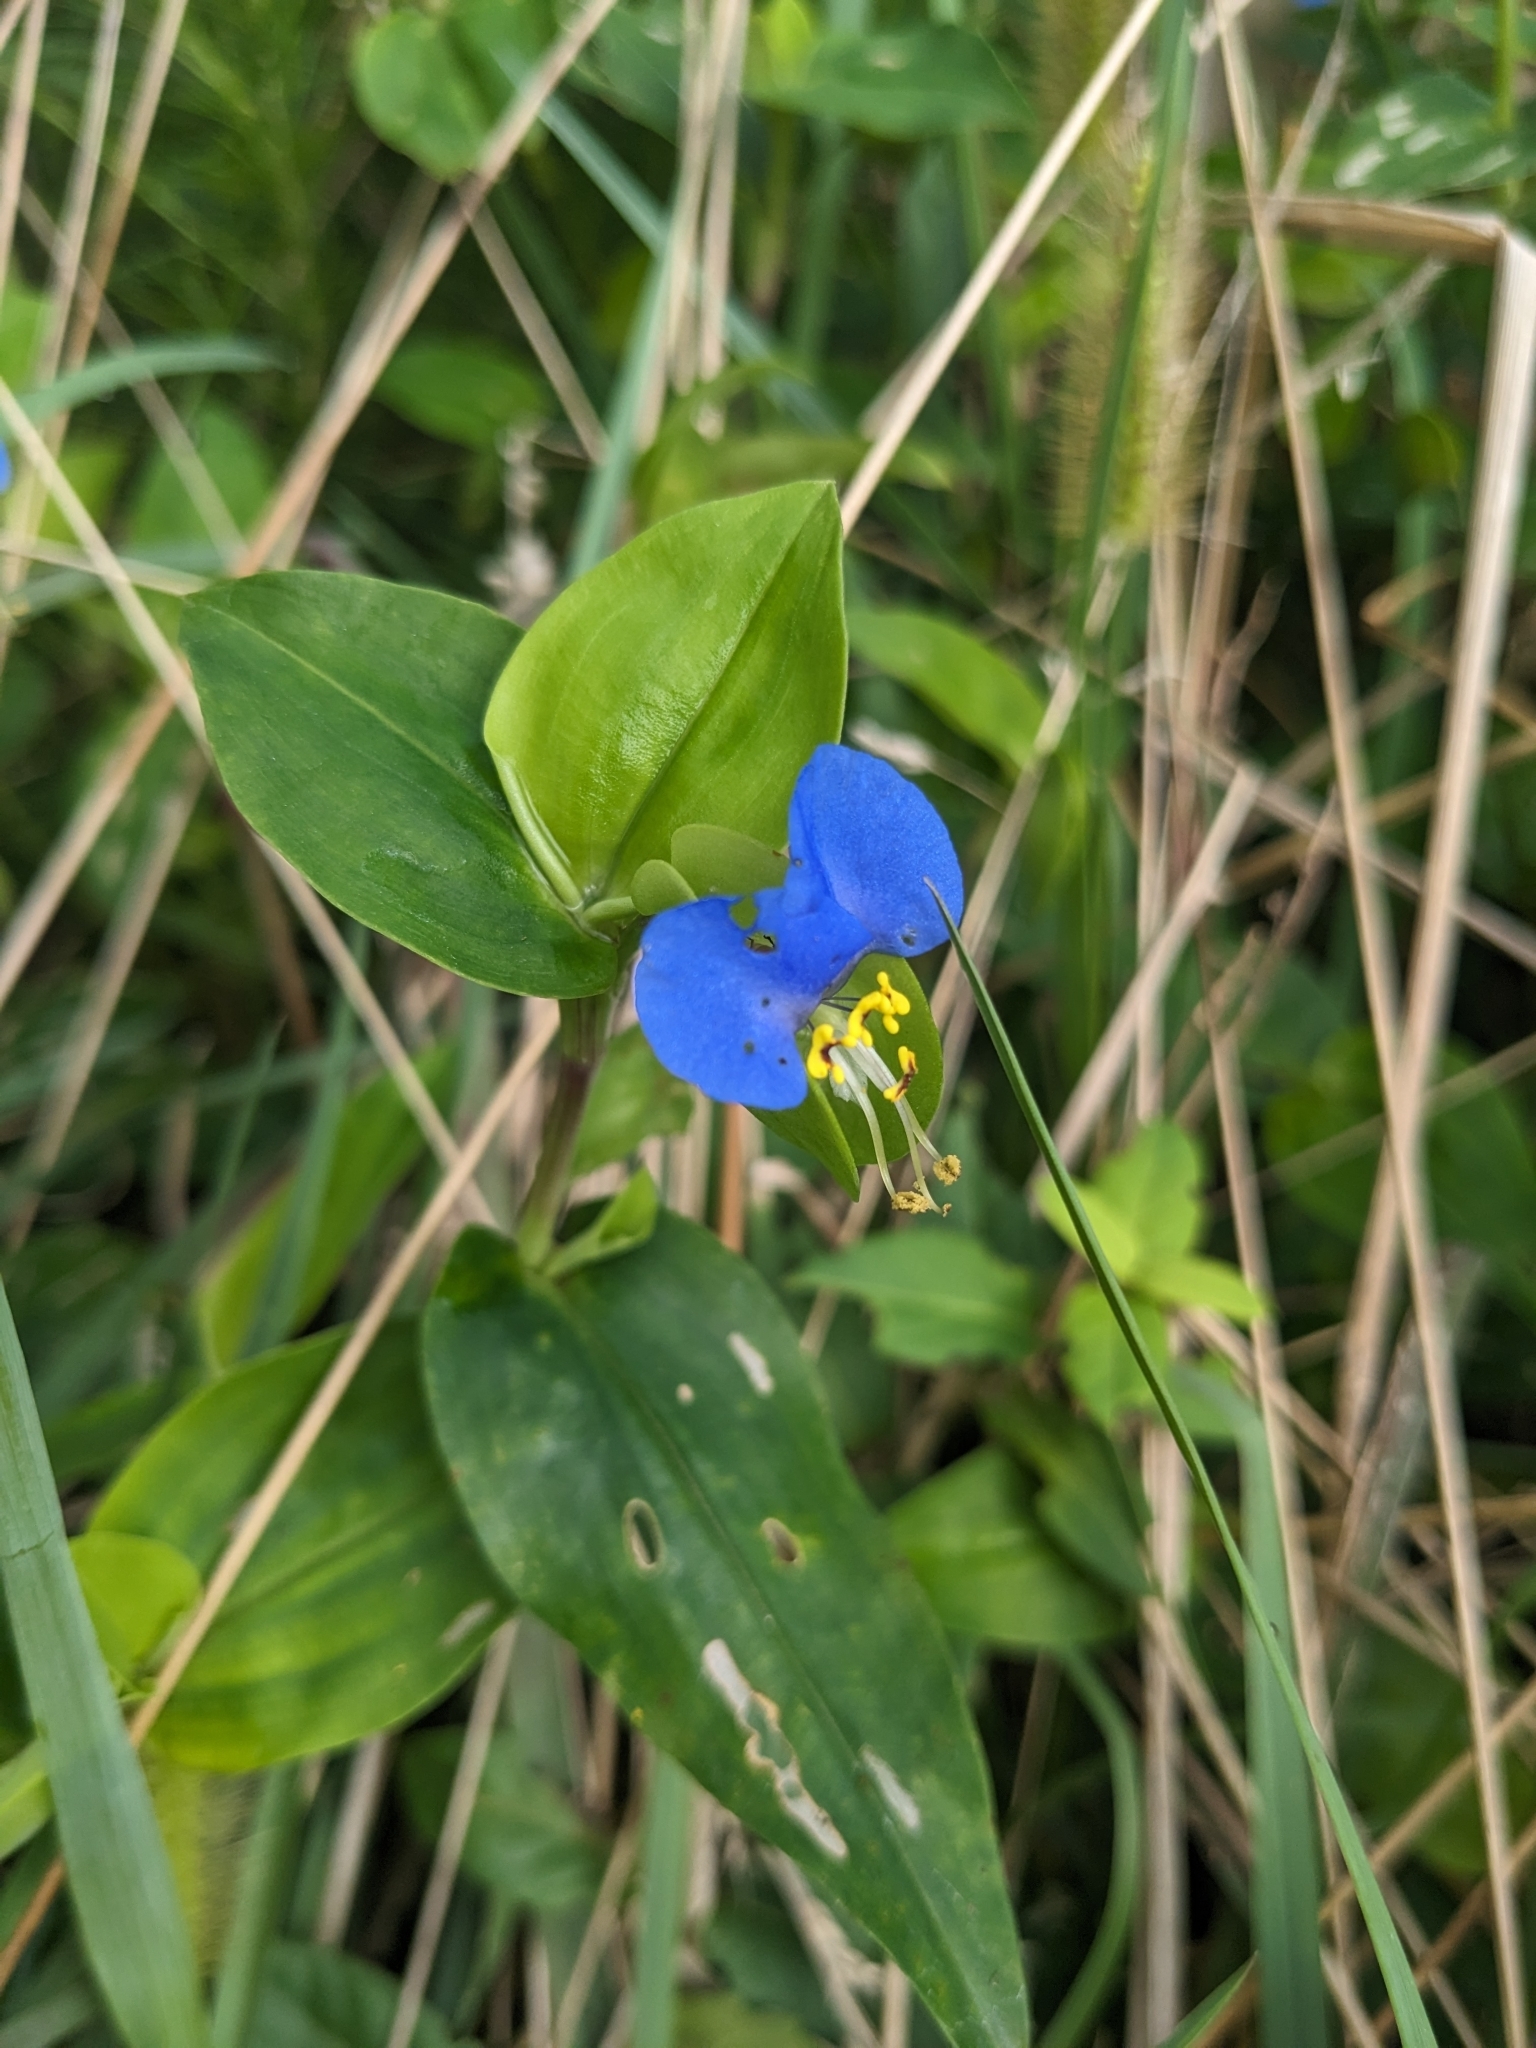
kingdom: Plantae
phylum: Tracheophyta
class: Liliopsida
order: Commelinales
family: Commelinaceae
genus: Commelina
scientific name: Commelina communis
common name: Asiatic dayflower
